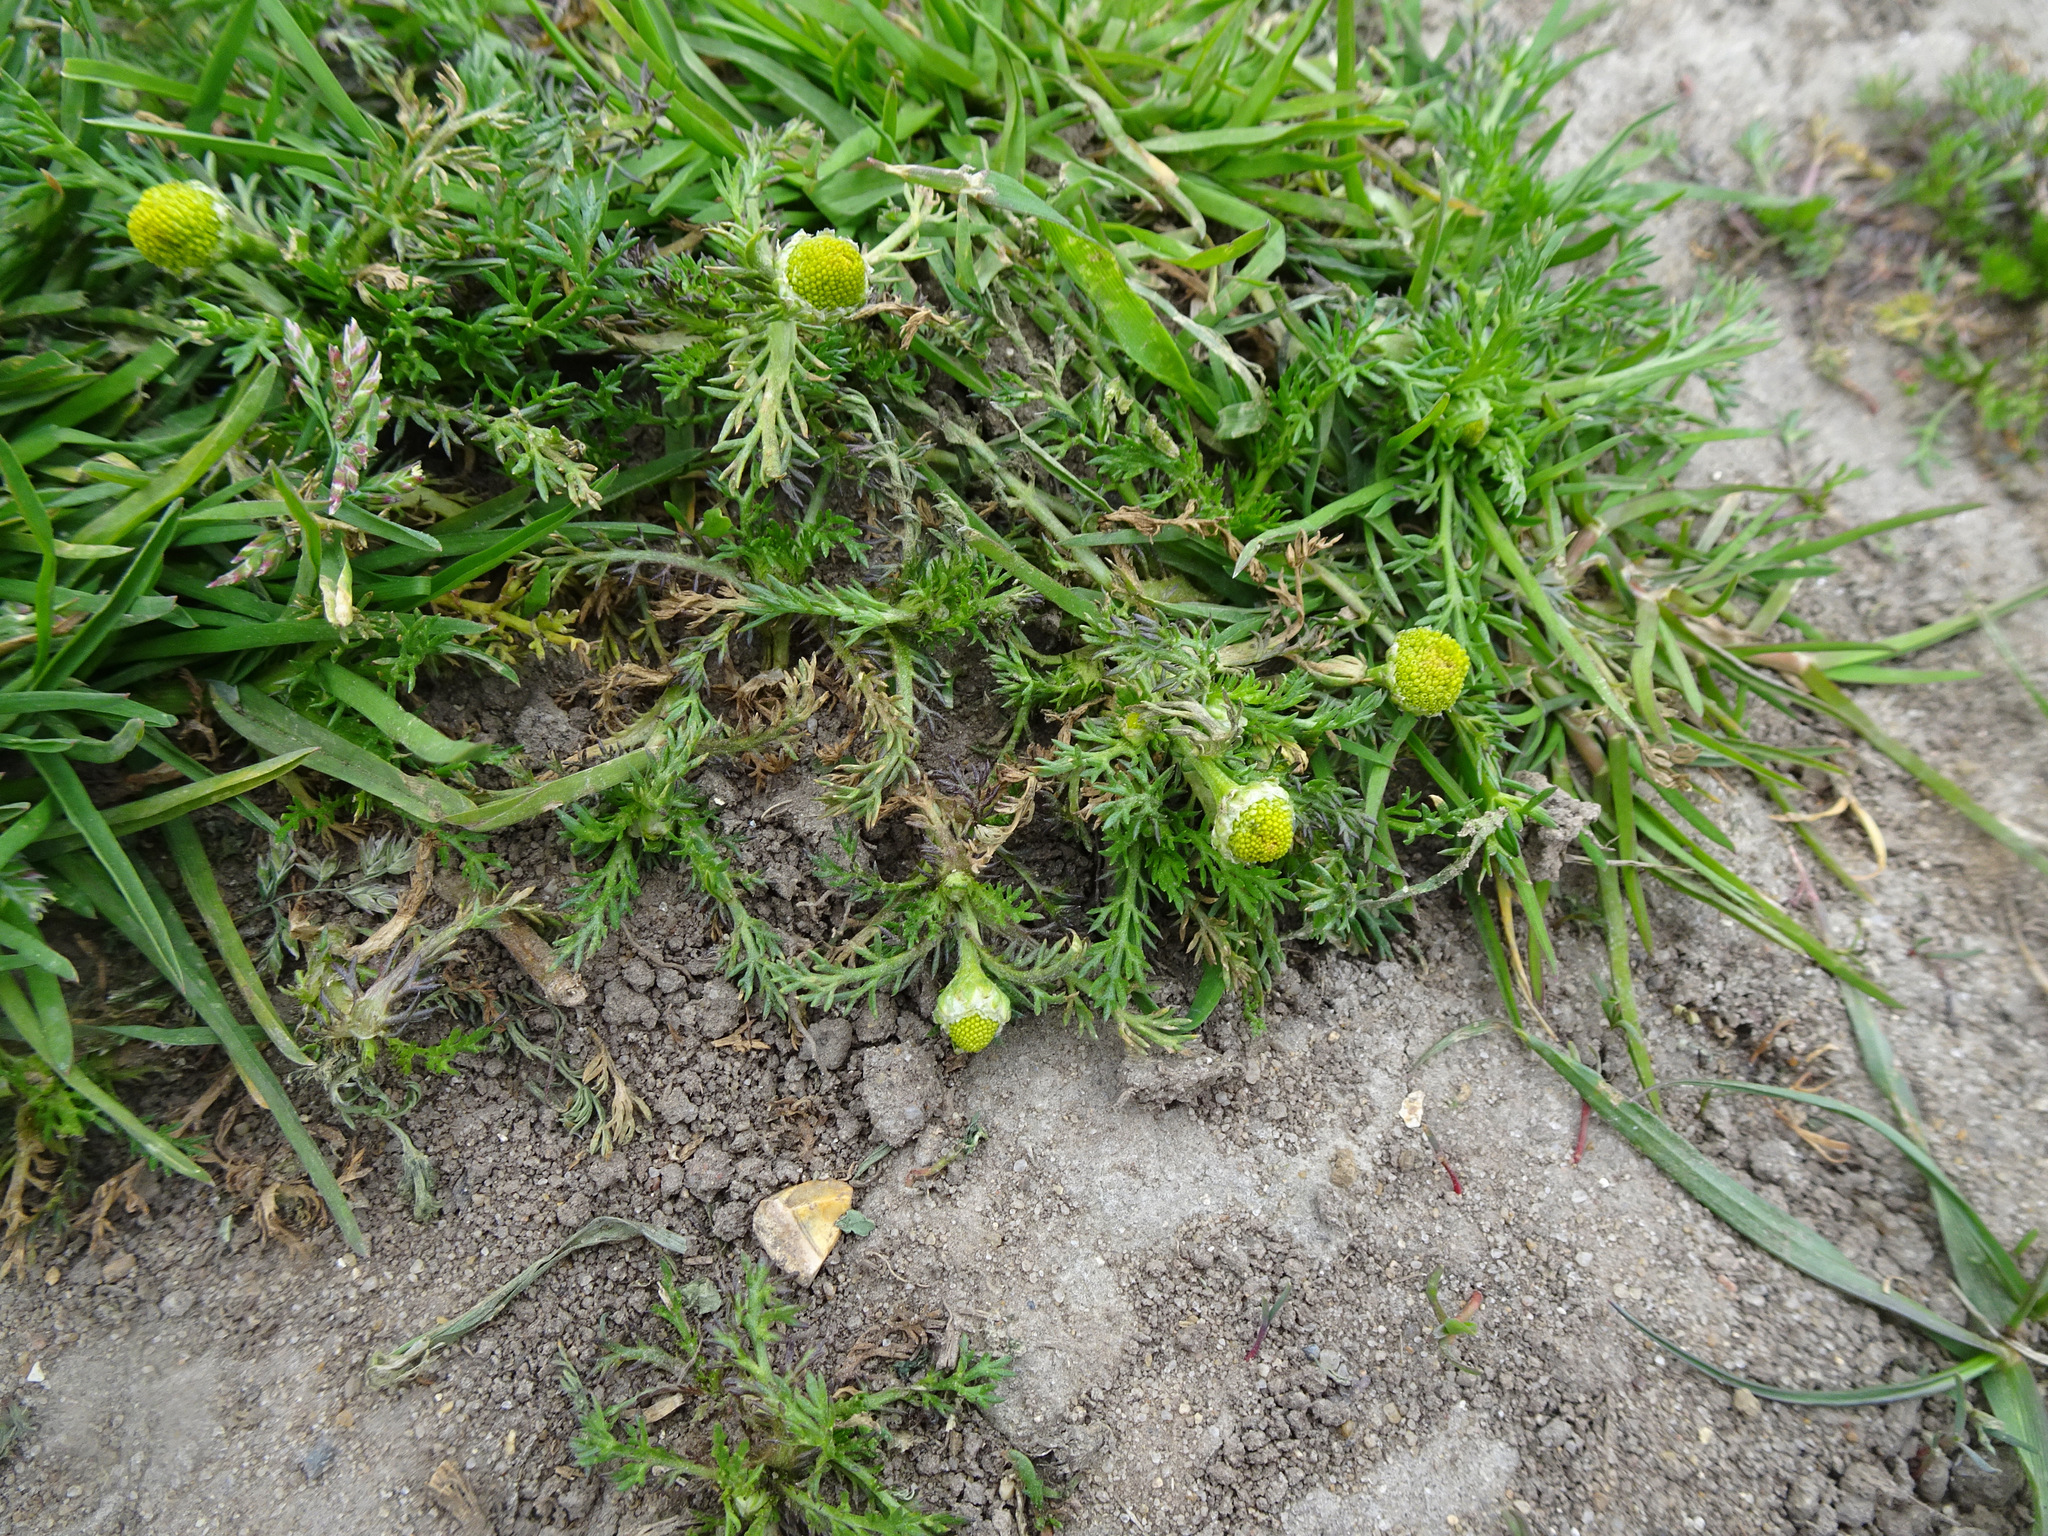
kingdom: Plantae
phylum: Tracheophyta
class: Magnoliopsida
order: Asterales
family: Asteraceae
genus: Matricaria
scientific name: Matricaria discoidea
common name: Disc mayweed
